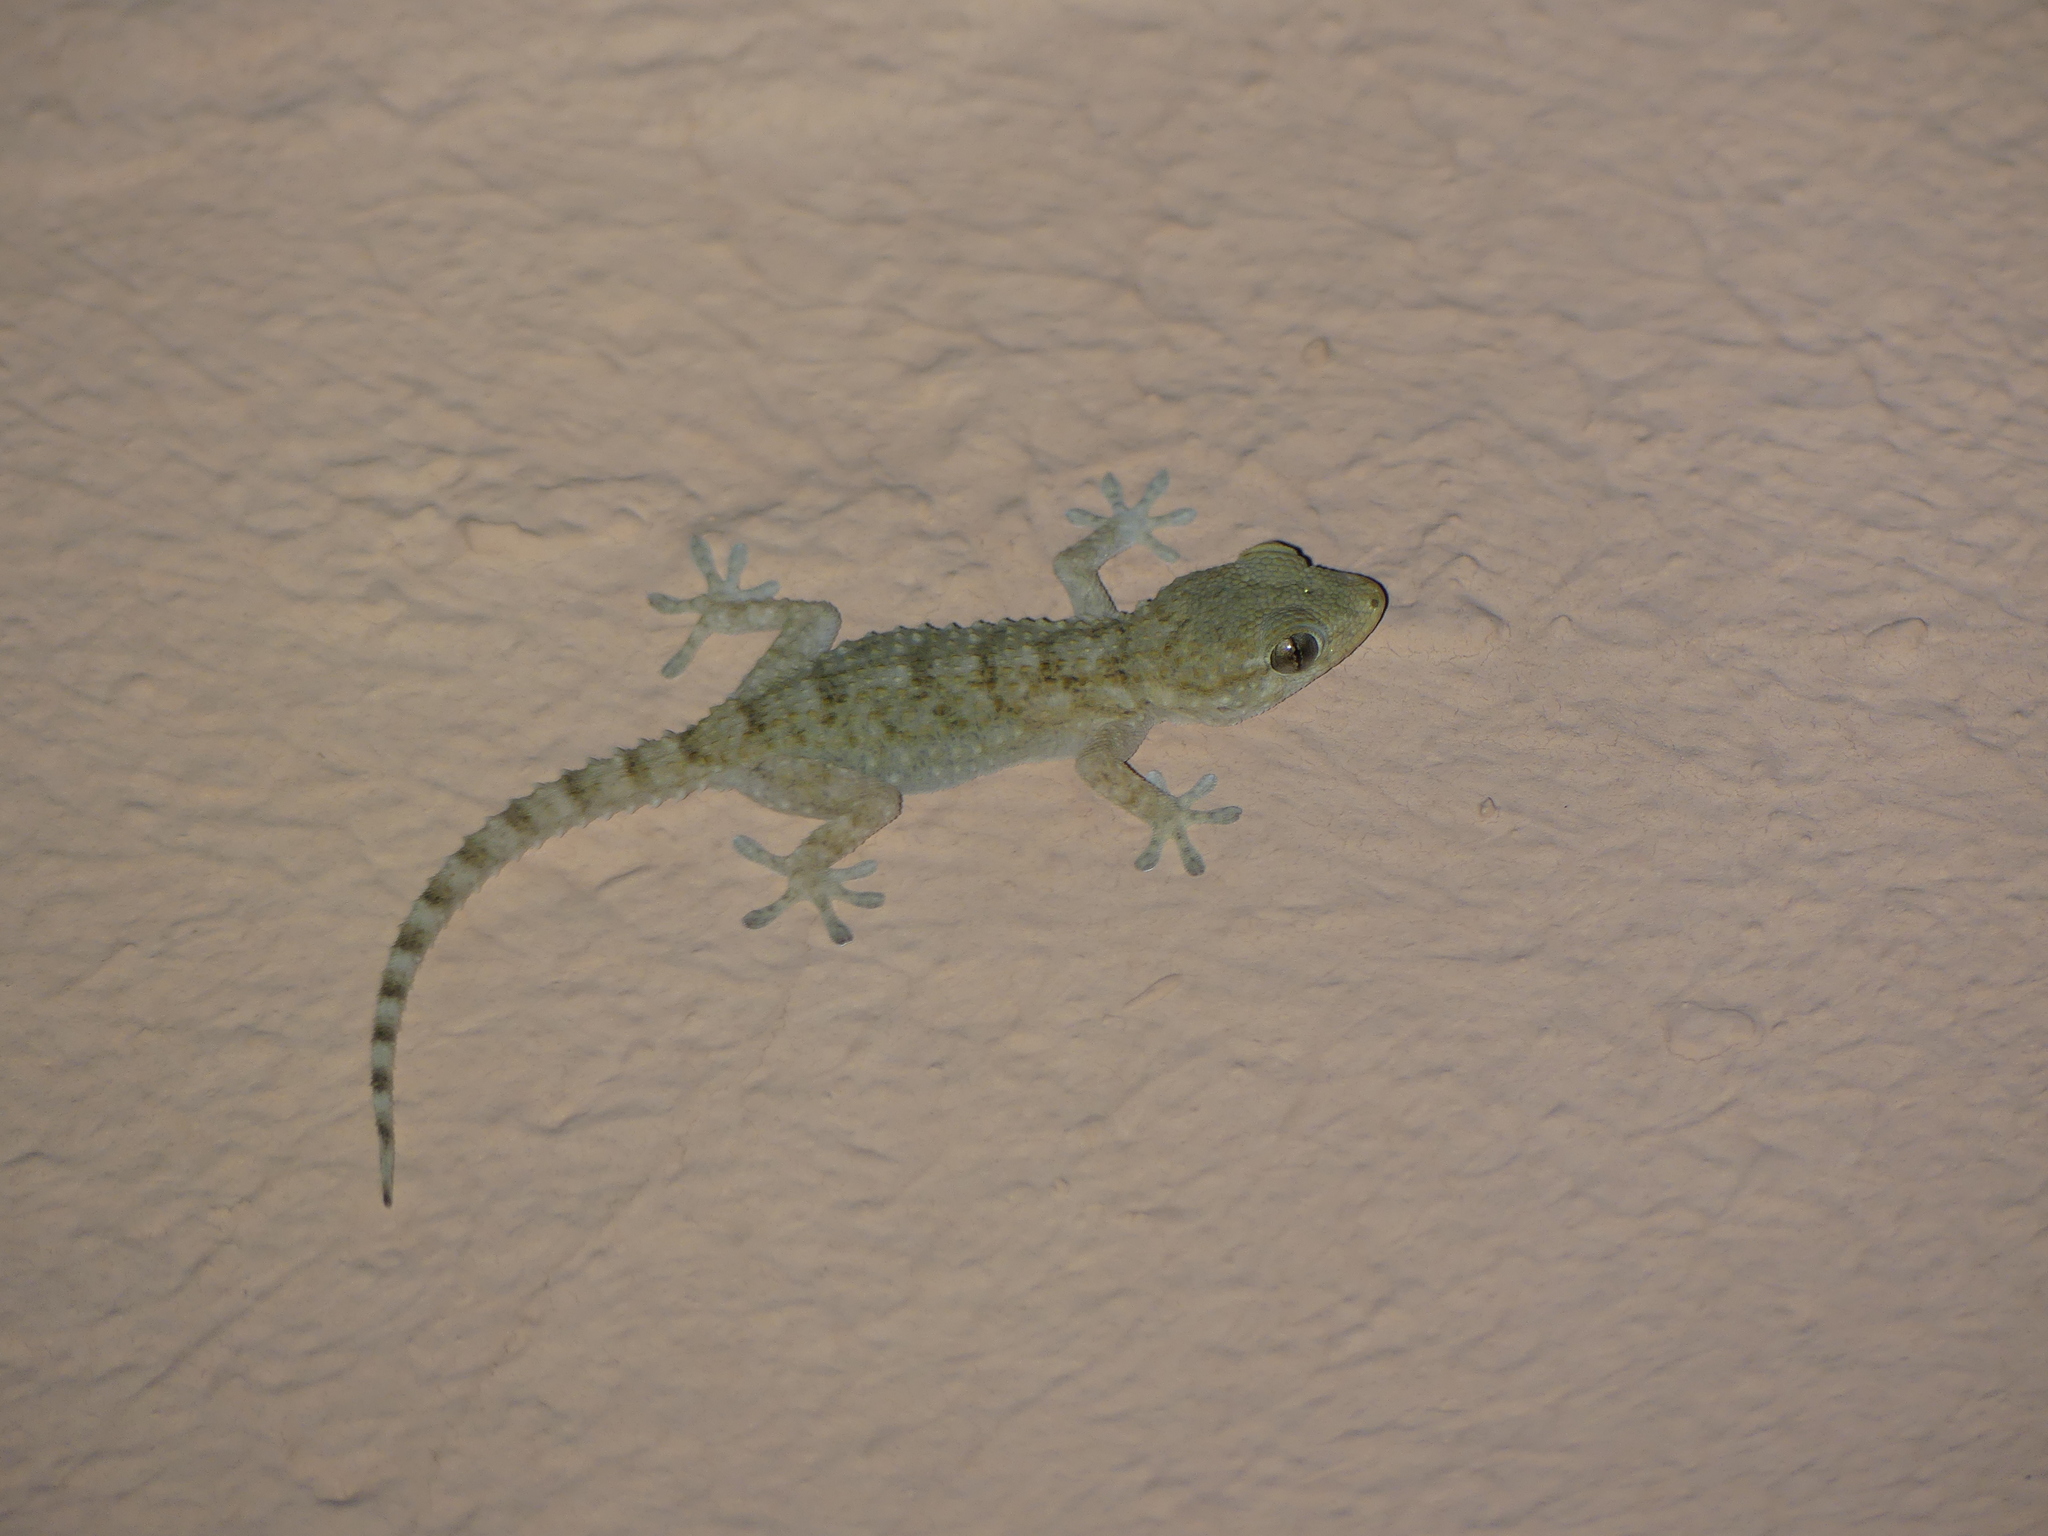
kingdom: Animalia
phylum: Chordata
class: Squamata
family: Phyllodactylidae
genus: Tarentola
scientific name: Tarentola mauritanica
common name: Moorish gecko
